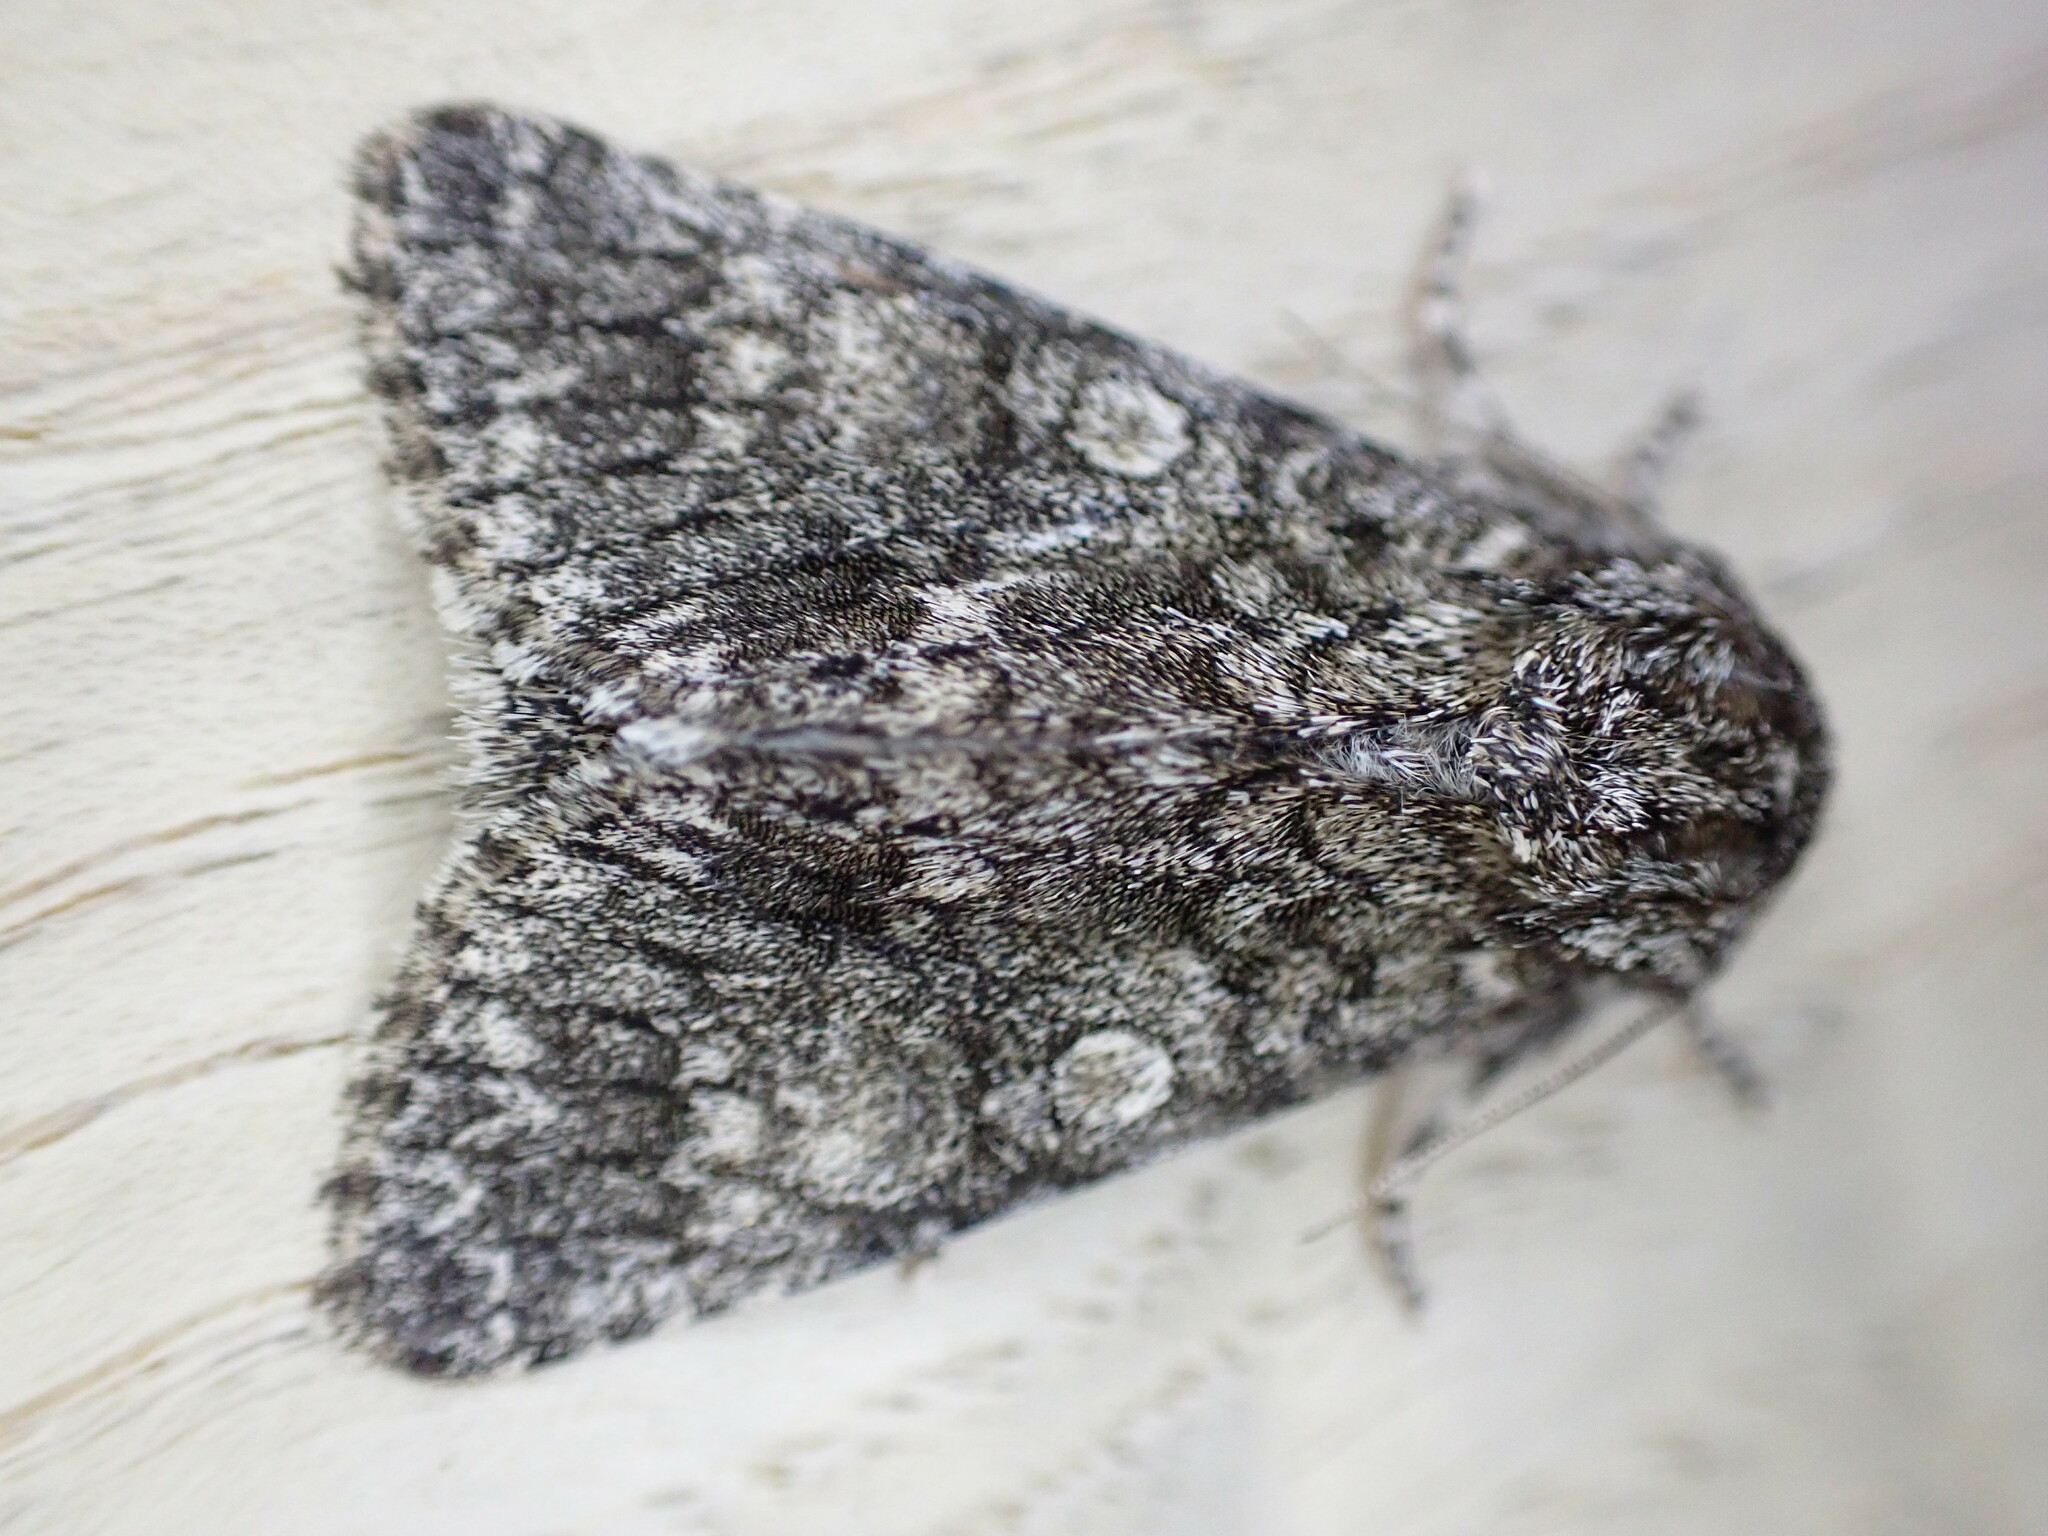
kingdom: Animalia
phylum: Arthropoda
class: Insecta
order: Lepidoptera
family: Noctuidae
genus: Acronicta
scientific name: Acronicta megacephala
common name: Poplar grey
